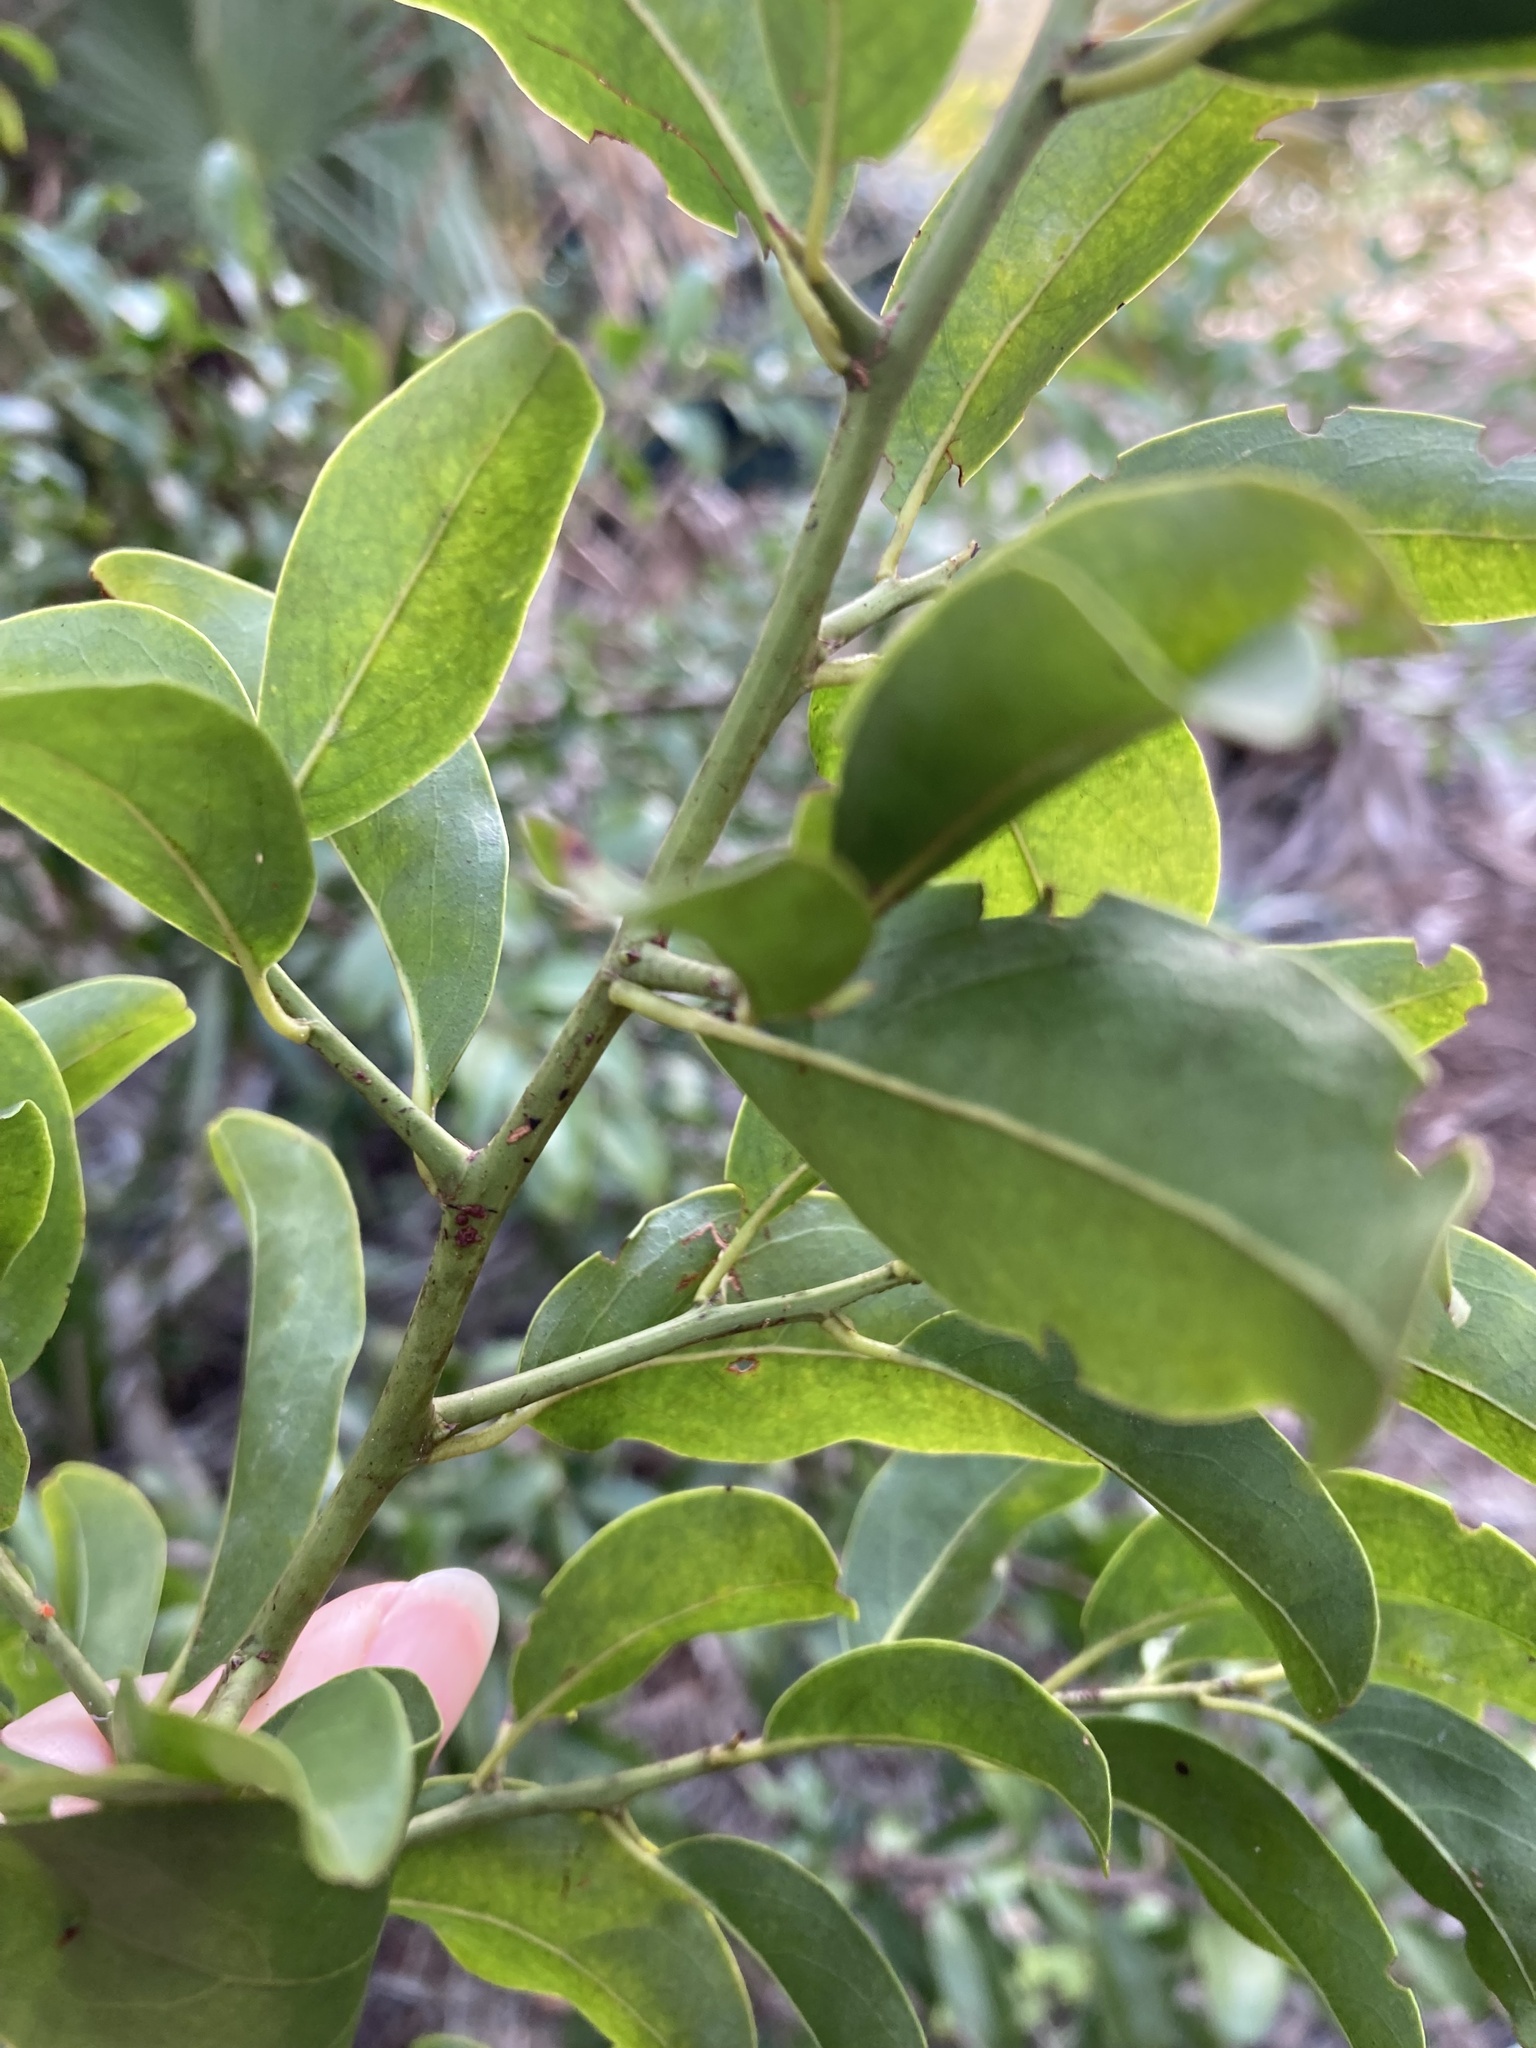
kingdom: Plantae
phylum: Tracheophyta
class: Magnoliopsida
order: Santalales
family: Ximeniaceae
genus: Ximenia
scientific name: Ximenia americana
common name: Tallowwood
